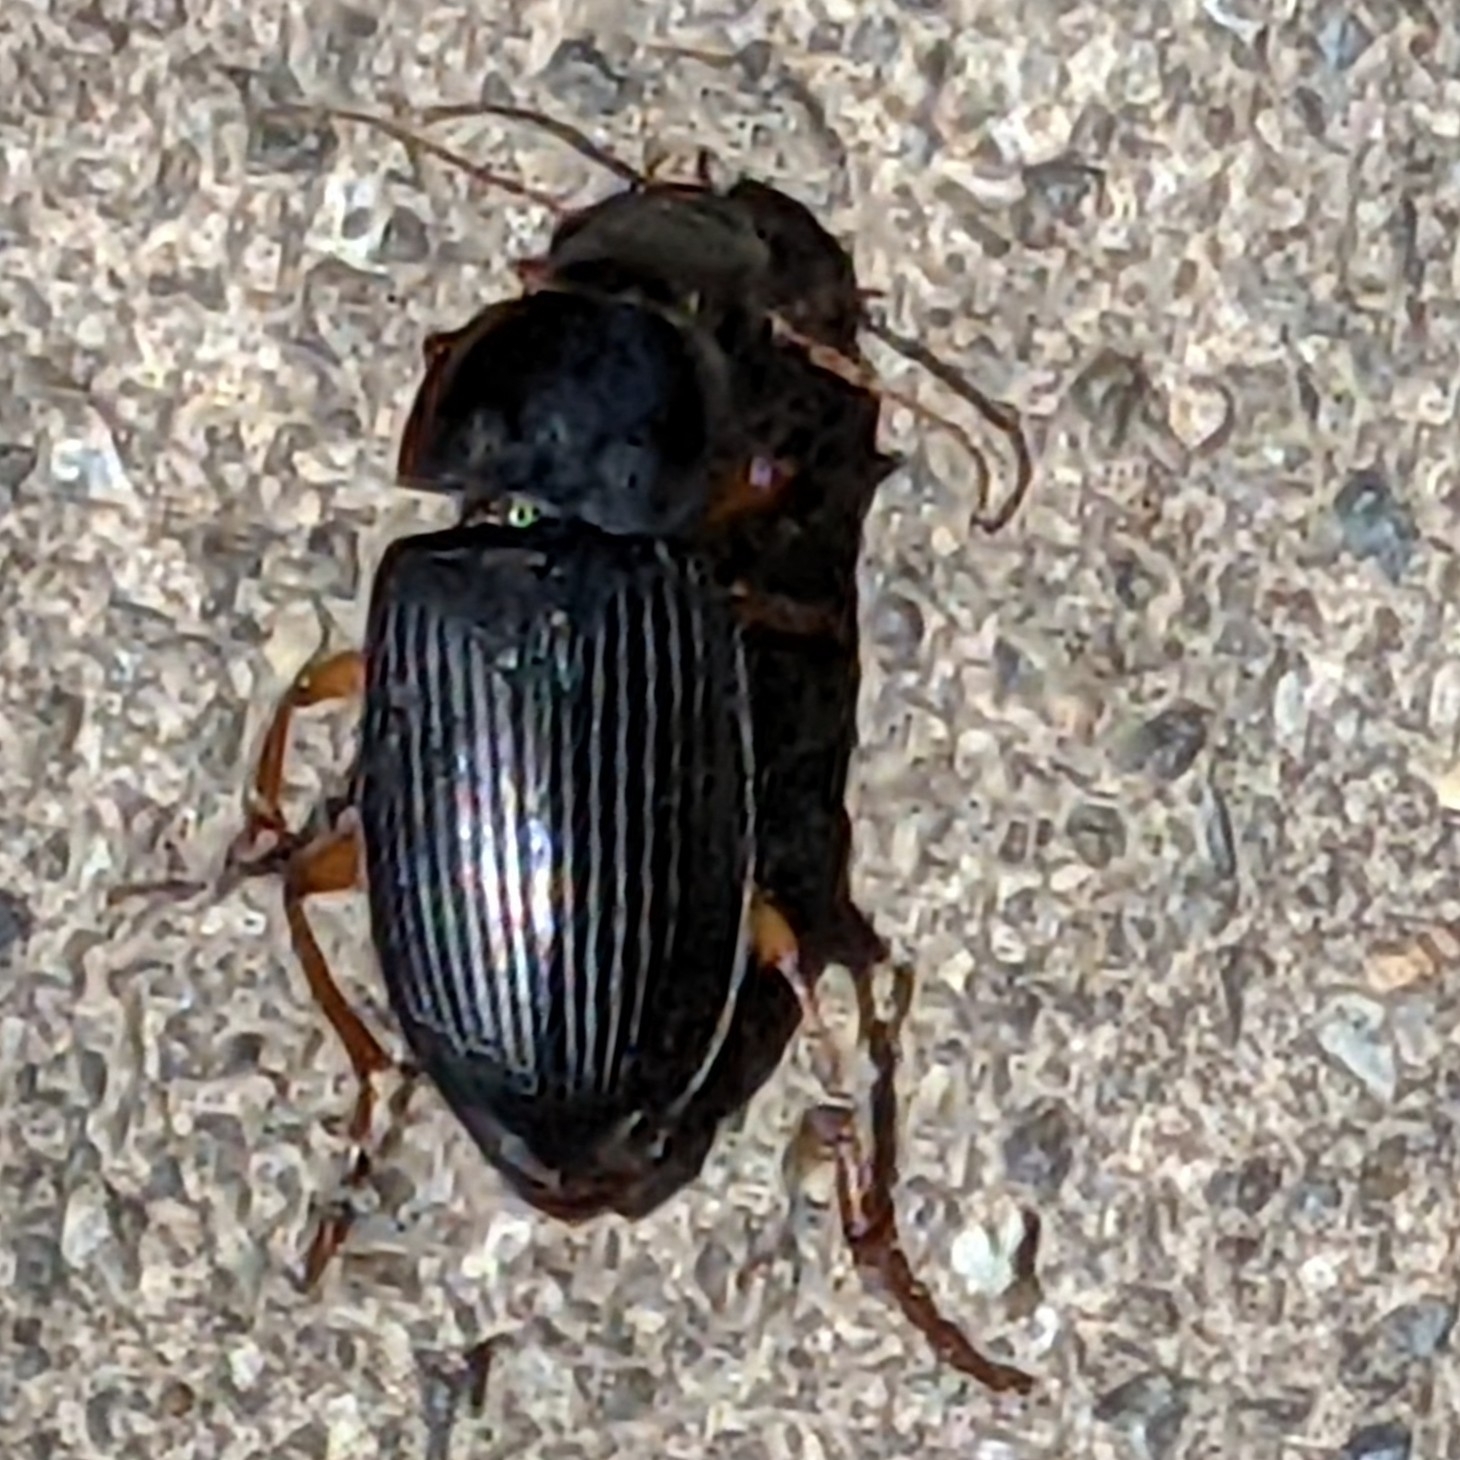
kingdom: Animalia
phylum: Arthropoda
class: Insecta
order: Coleoptera
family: Carabidae
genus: Harpalus
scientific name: Harpalus pensylvanicus
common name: Pennsylvania dingy ground beetle
